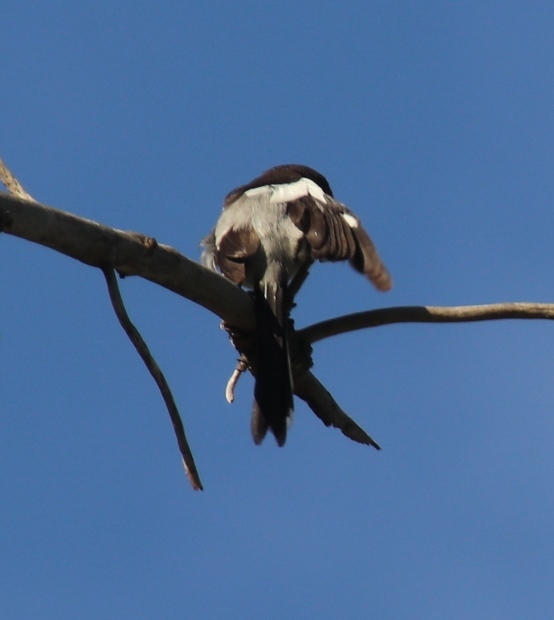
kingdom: Animalia
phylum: Chordata
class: Aves
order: Passeriformes
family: Laniidae
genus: Lanius
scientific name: Lanius collaris
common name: Southern fiscal
